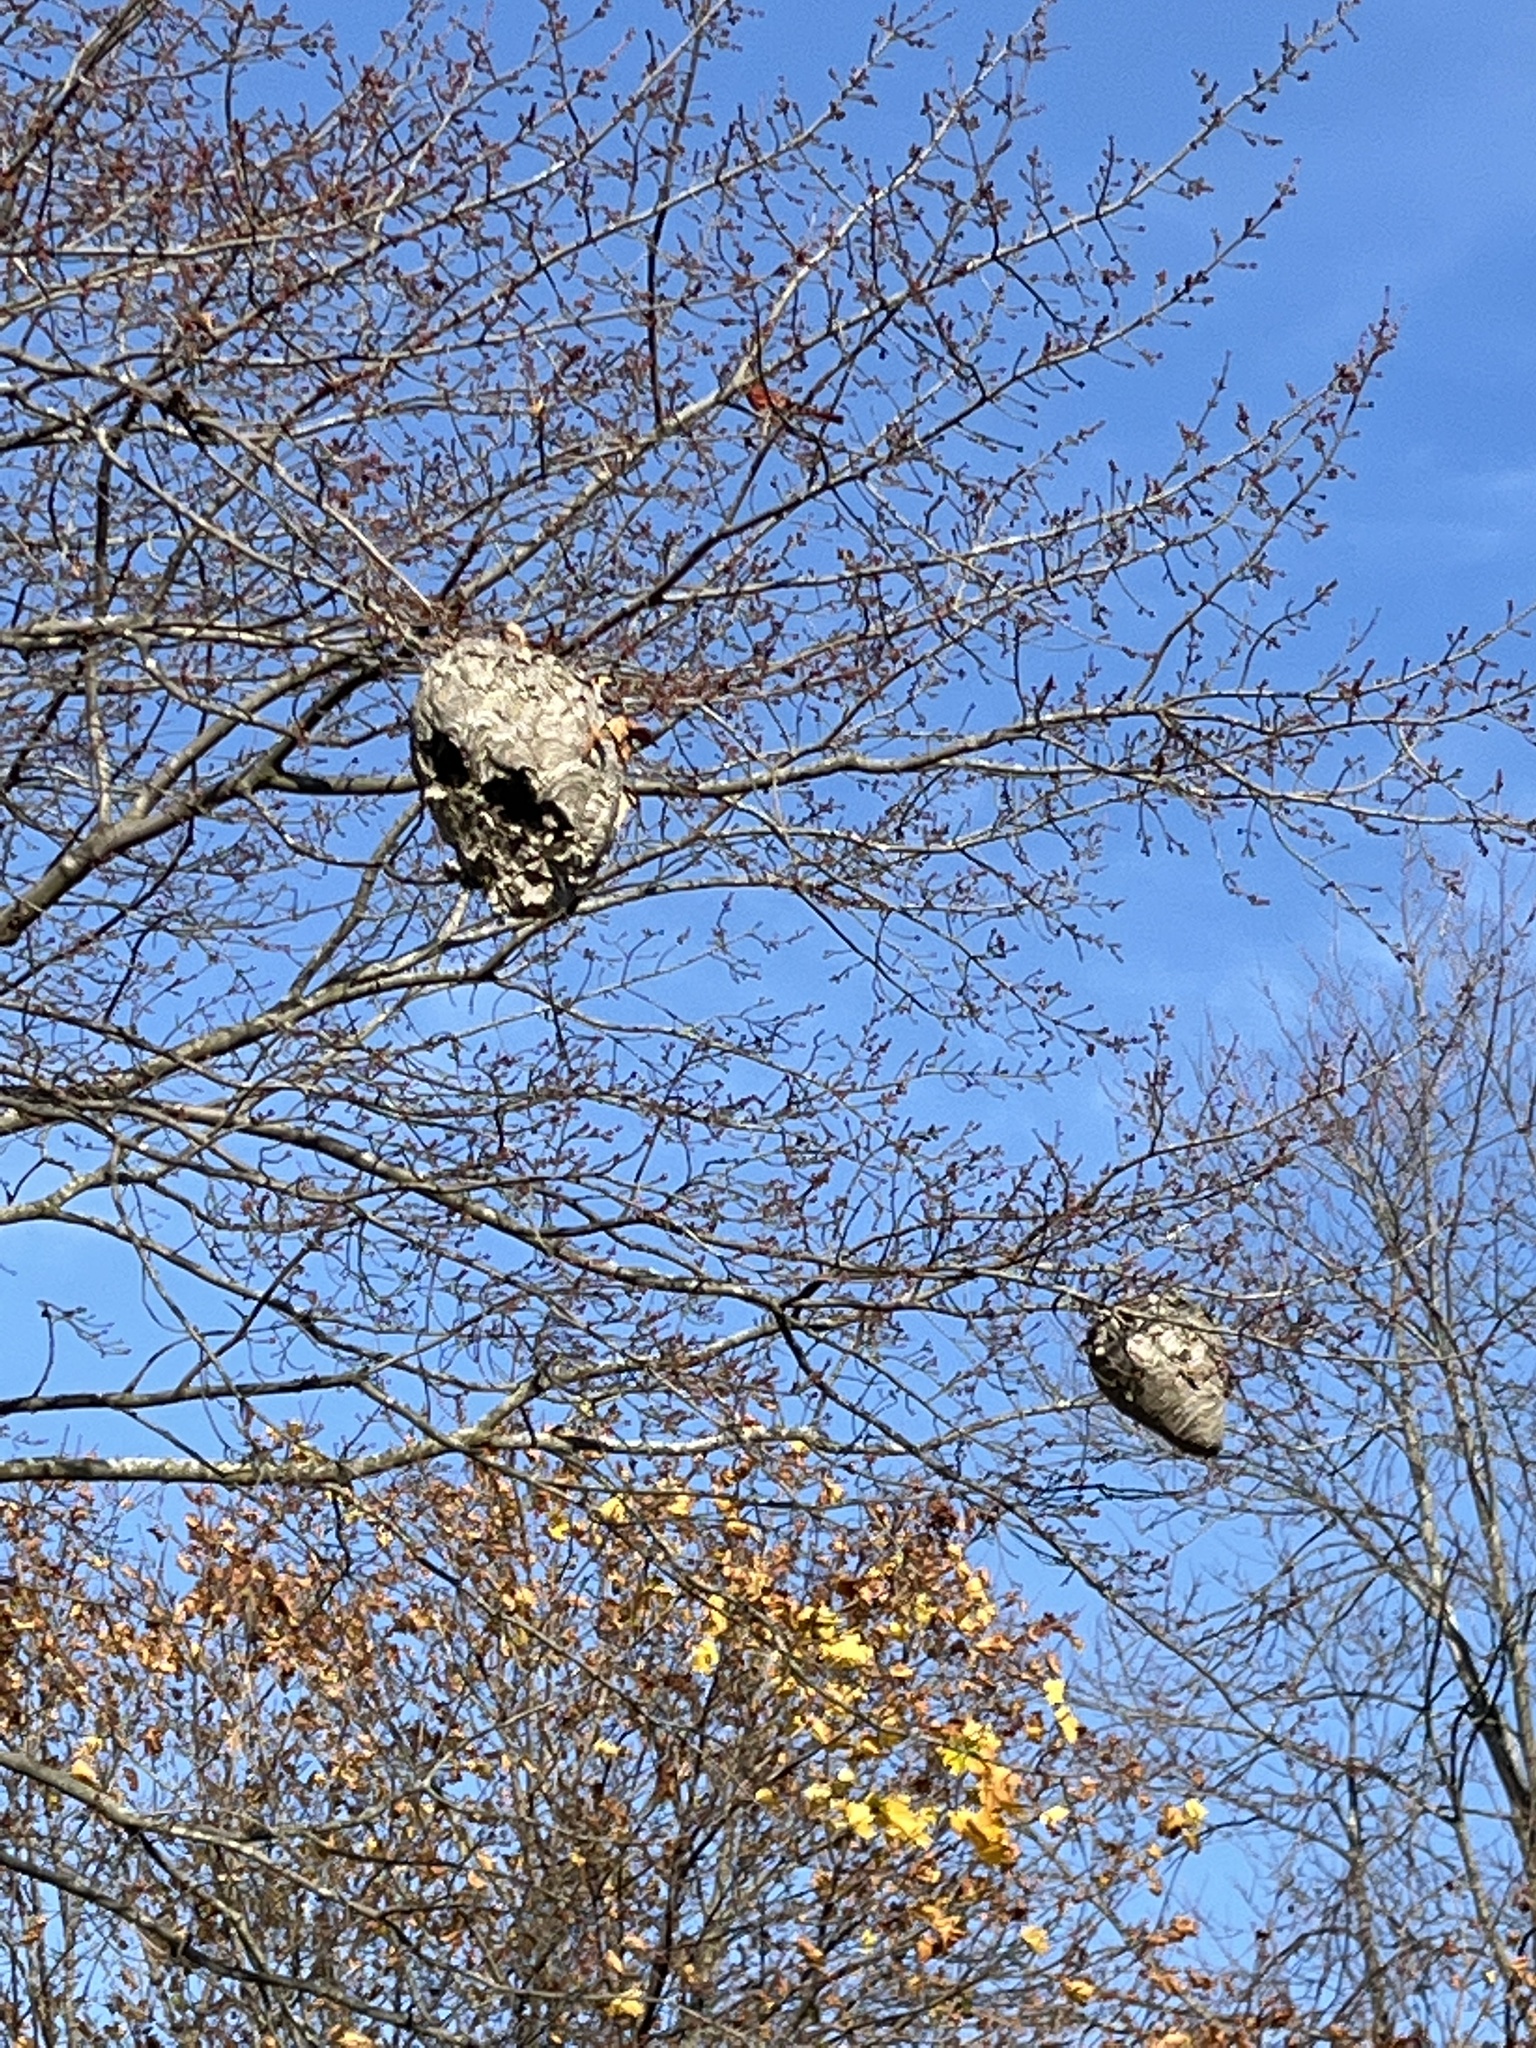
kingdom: Animalia
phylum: Arthropoda
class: Insecta
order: Hymenoptera
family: Vespidae
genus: Dolichovespula
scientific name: Dolichovespula maculata
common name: Bald-faced hornet
